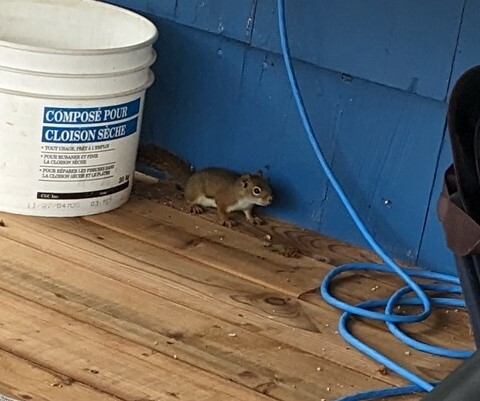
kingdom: Animalia
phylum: Chordata
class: Mammalia
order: Rodentia
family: Sciuridae
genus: Tamiasciurus
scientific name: Tamiasciurus hudsonicus
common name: Red squirrel
